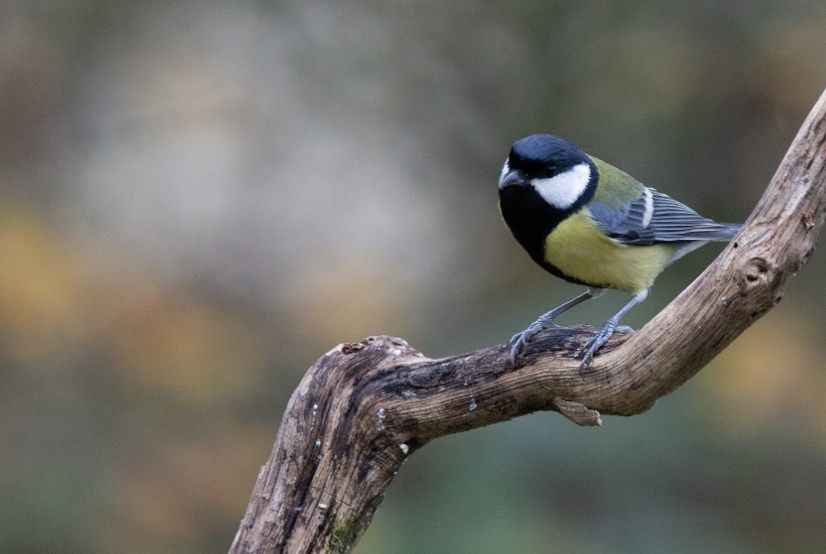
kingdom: Animalia
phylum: Chordata
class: Aves
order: Passeriformes
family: Paridae
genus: Parus
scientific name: Parus major
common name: Great tit
